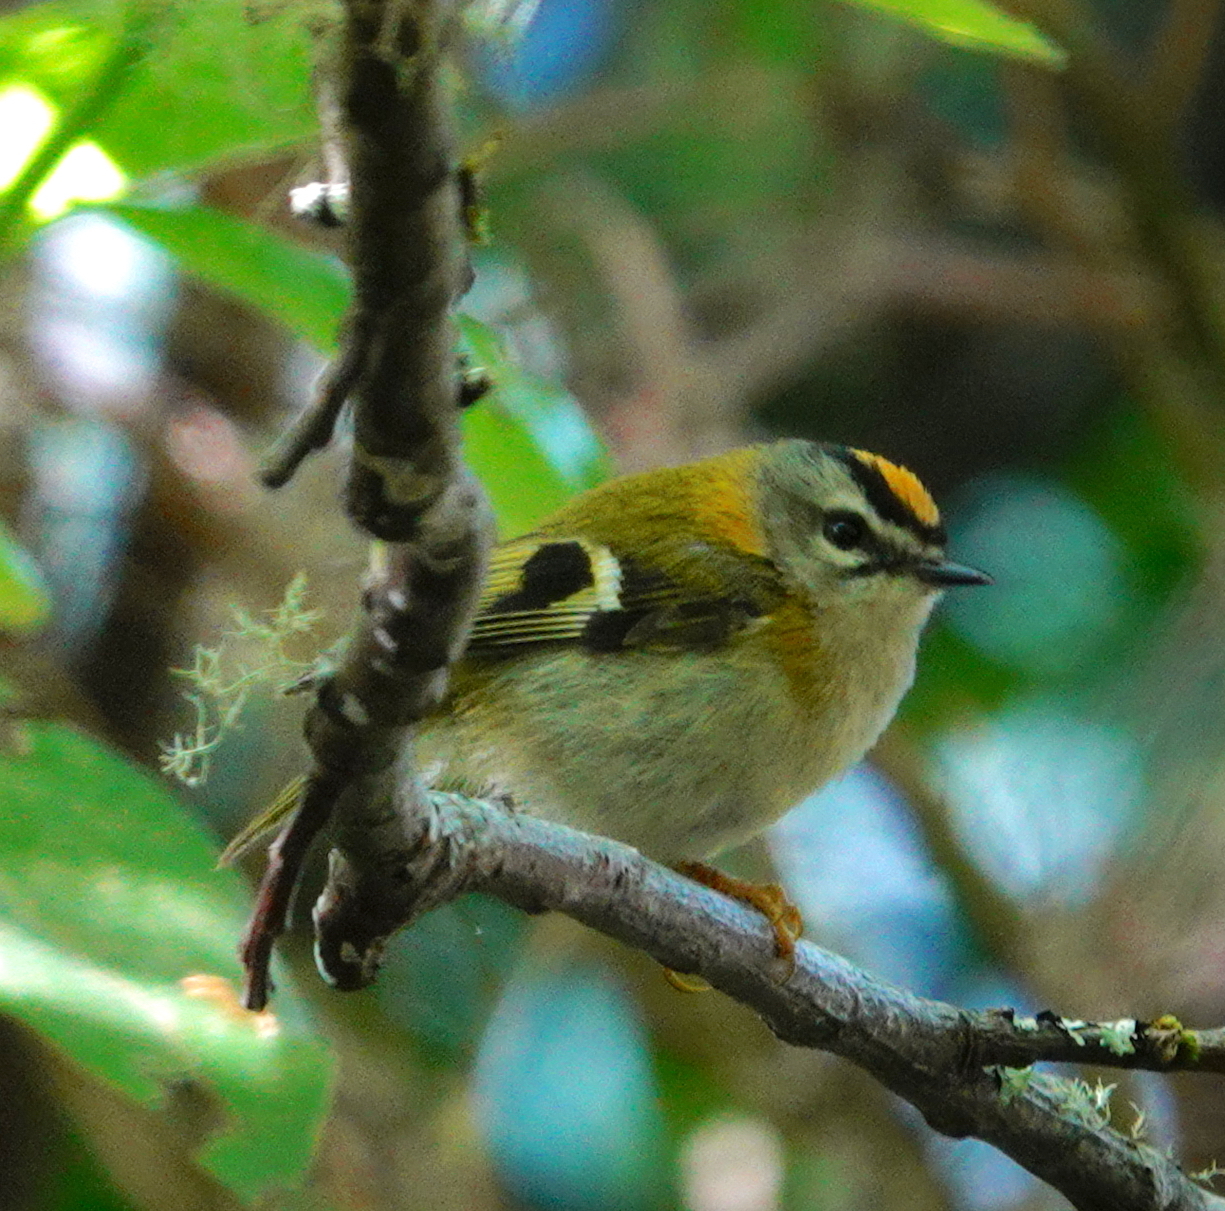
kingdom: Animalia
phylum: Chordata
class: Aves
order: Passeriformes
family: Regulidae
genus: Regulus
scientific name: Regulus madeirensis
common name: Madeira firecrest
